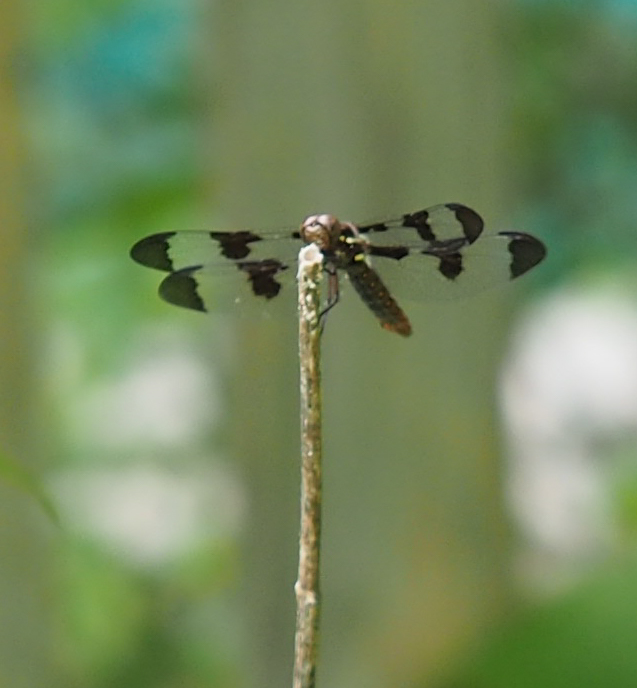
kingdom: Animalia
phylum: Arthropoda
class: Insecta
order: Odonata
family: Libellulidae
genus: Plathemis
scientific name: Plathemis lydia
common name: Common whitetail
